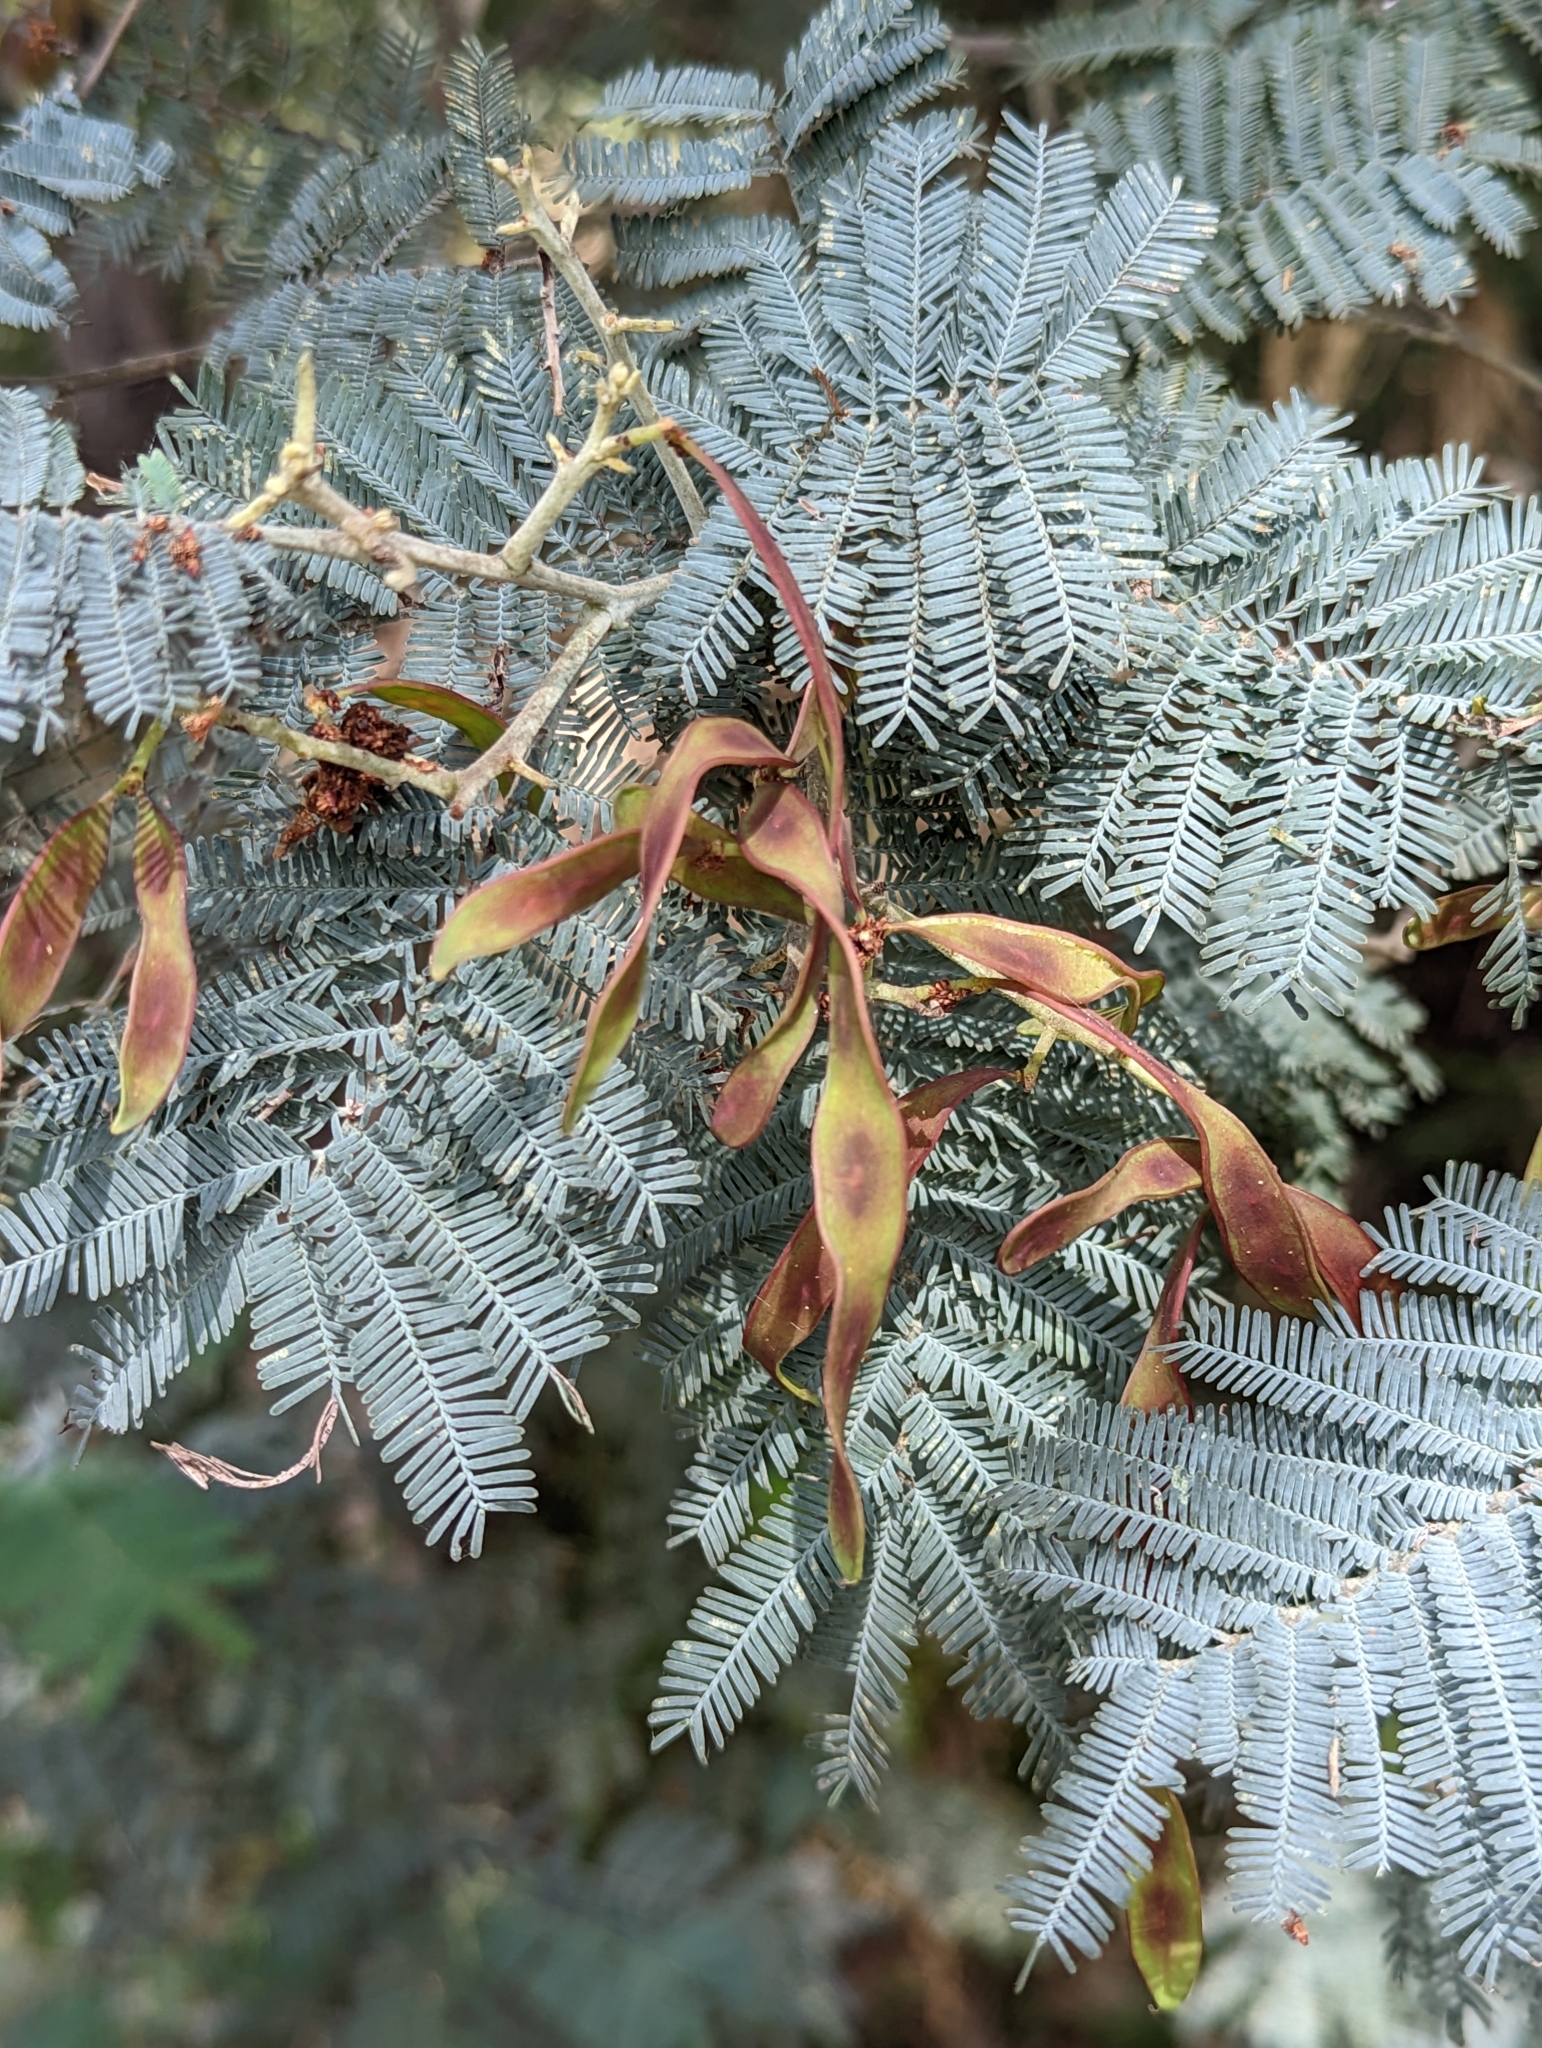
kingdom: Plantae
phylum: Tracheophyta
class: Magnoliopsida
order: Fabales
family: Fabaceae
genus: Acacia
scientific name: Acacia dealbata
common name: Silver wattle
